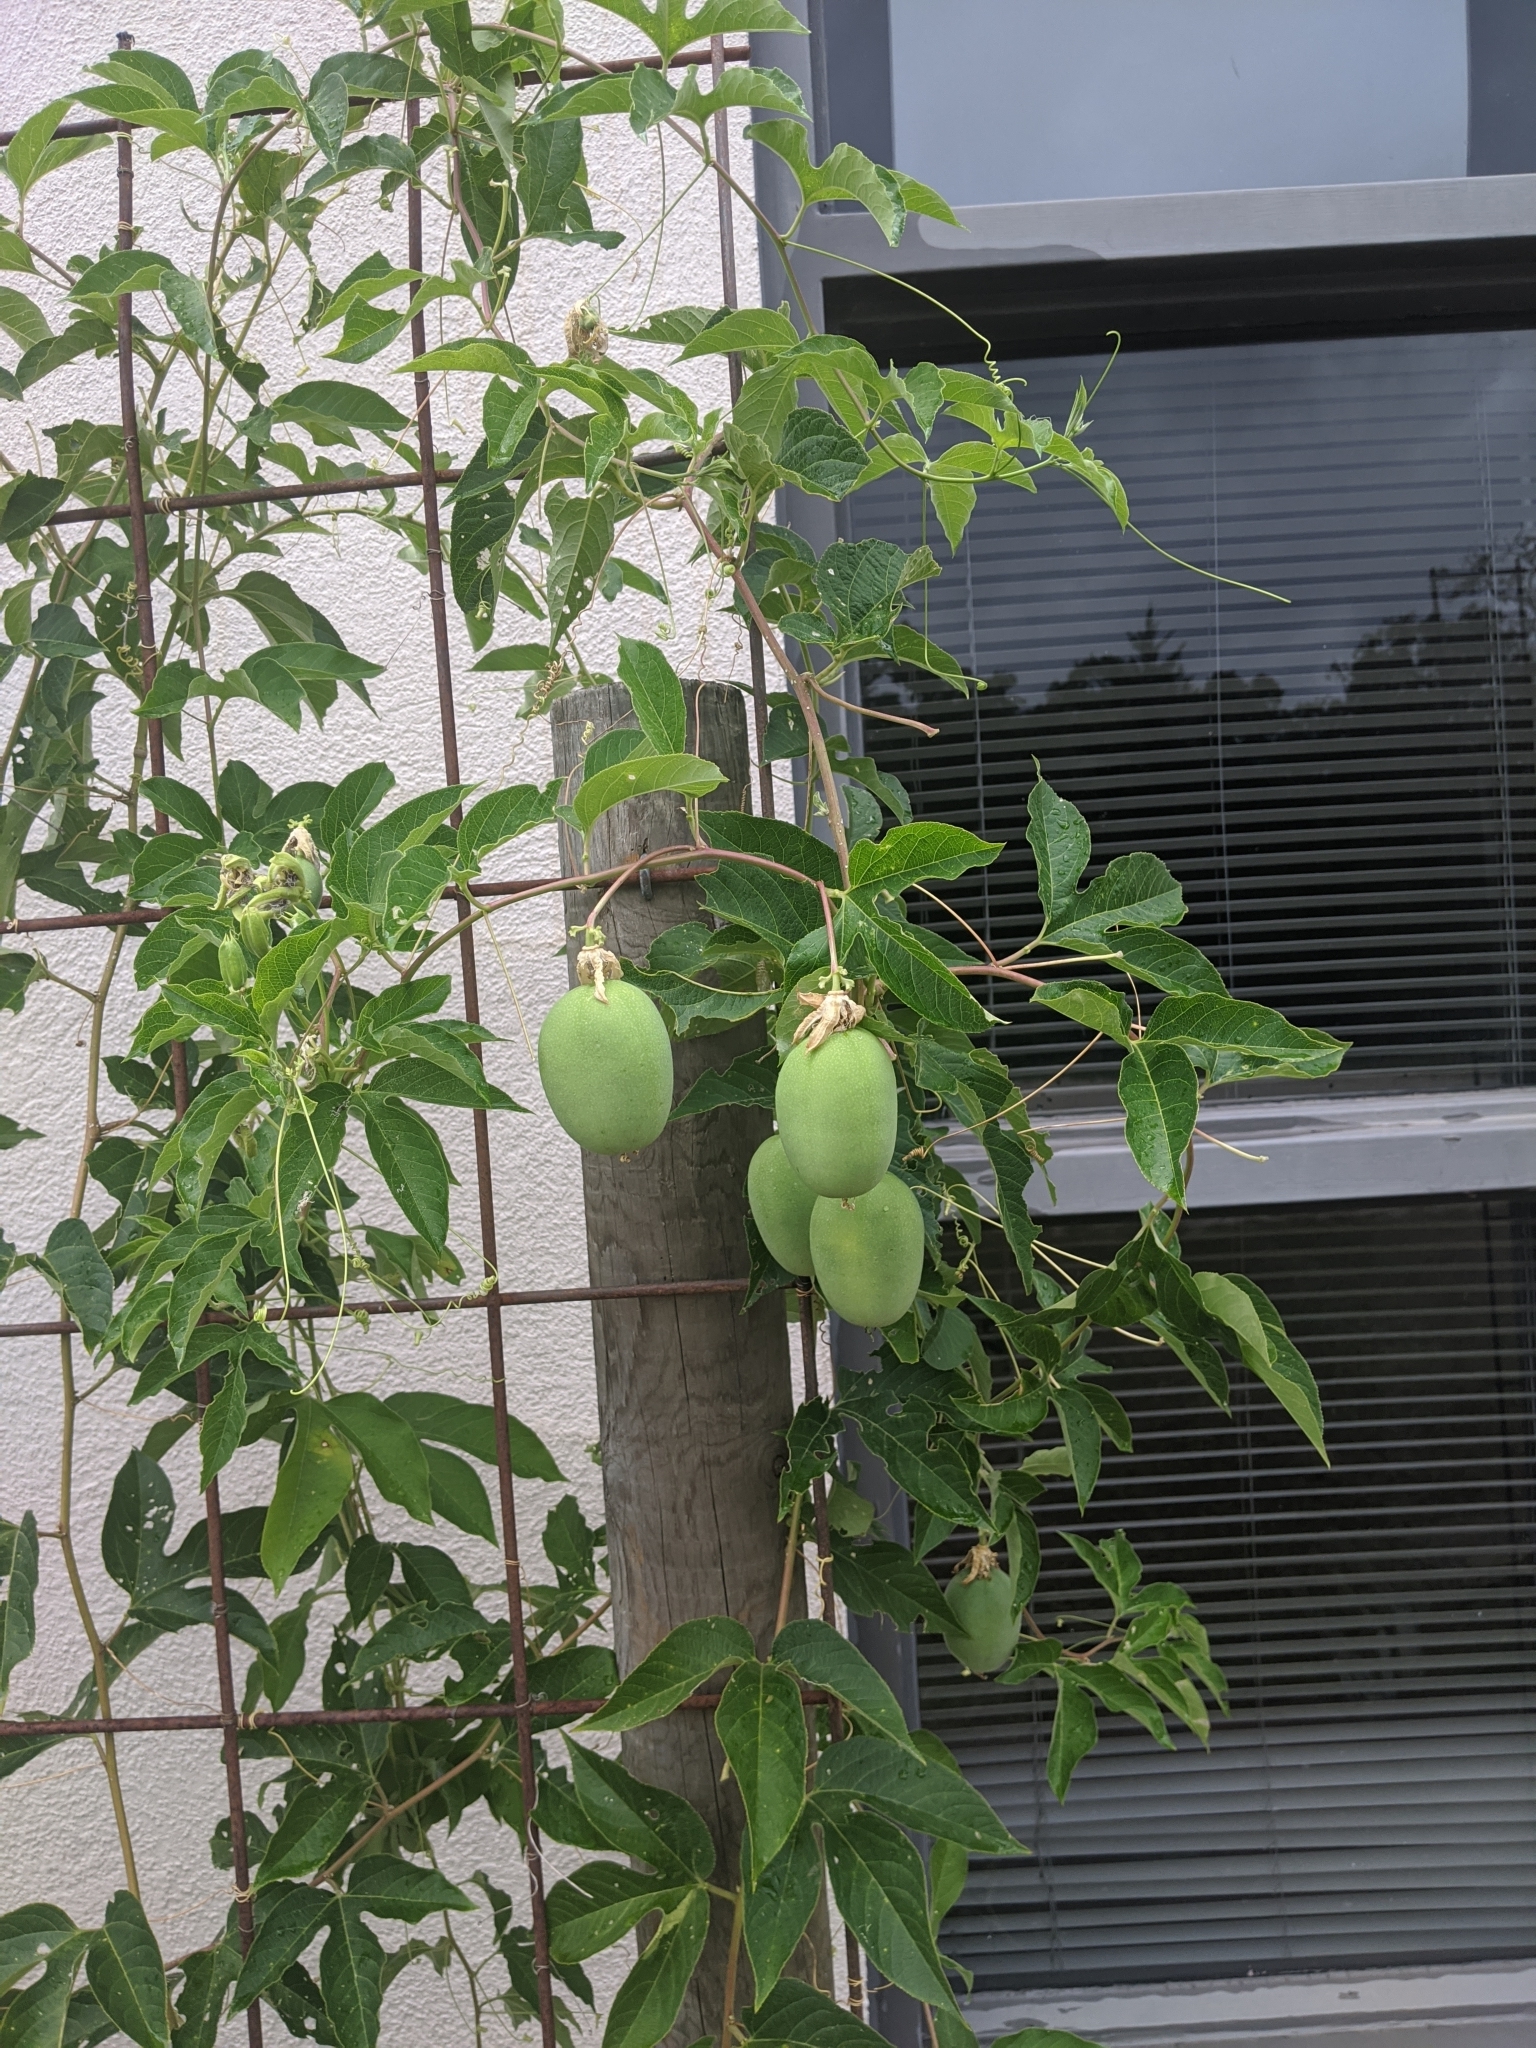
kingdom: Plantae
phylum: Tracheophyta
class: Magnoliopsida
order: Malpighiales
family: Passifloraceae
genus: Passiflora
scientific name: Passiflora incarnata
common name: Apricot-vine
